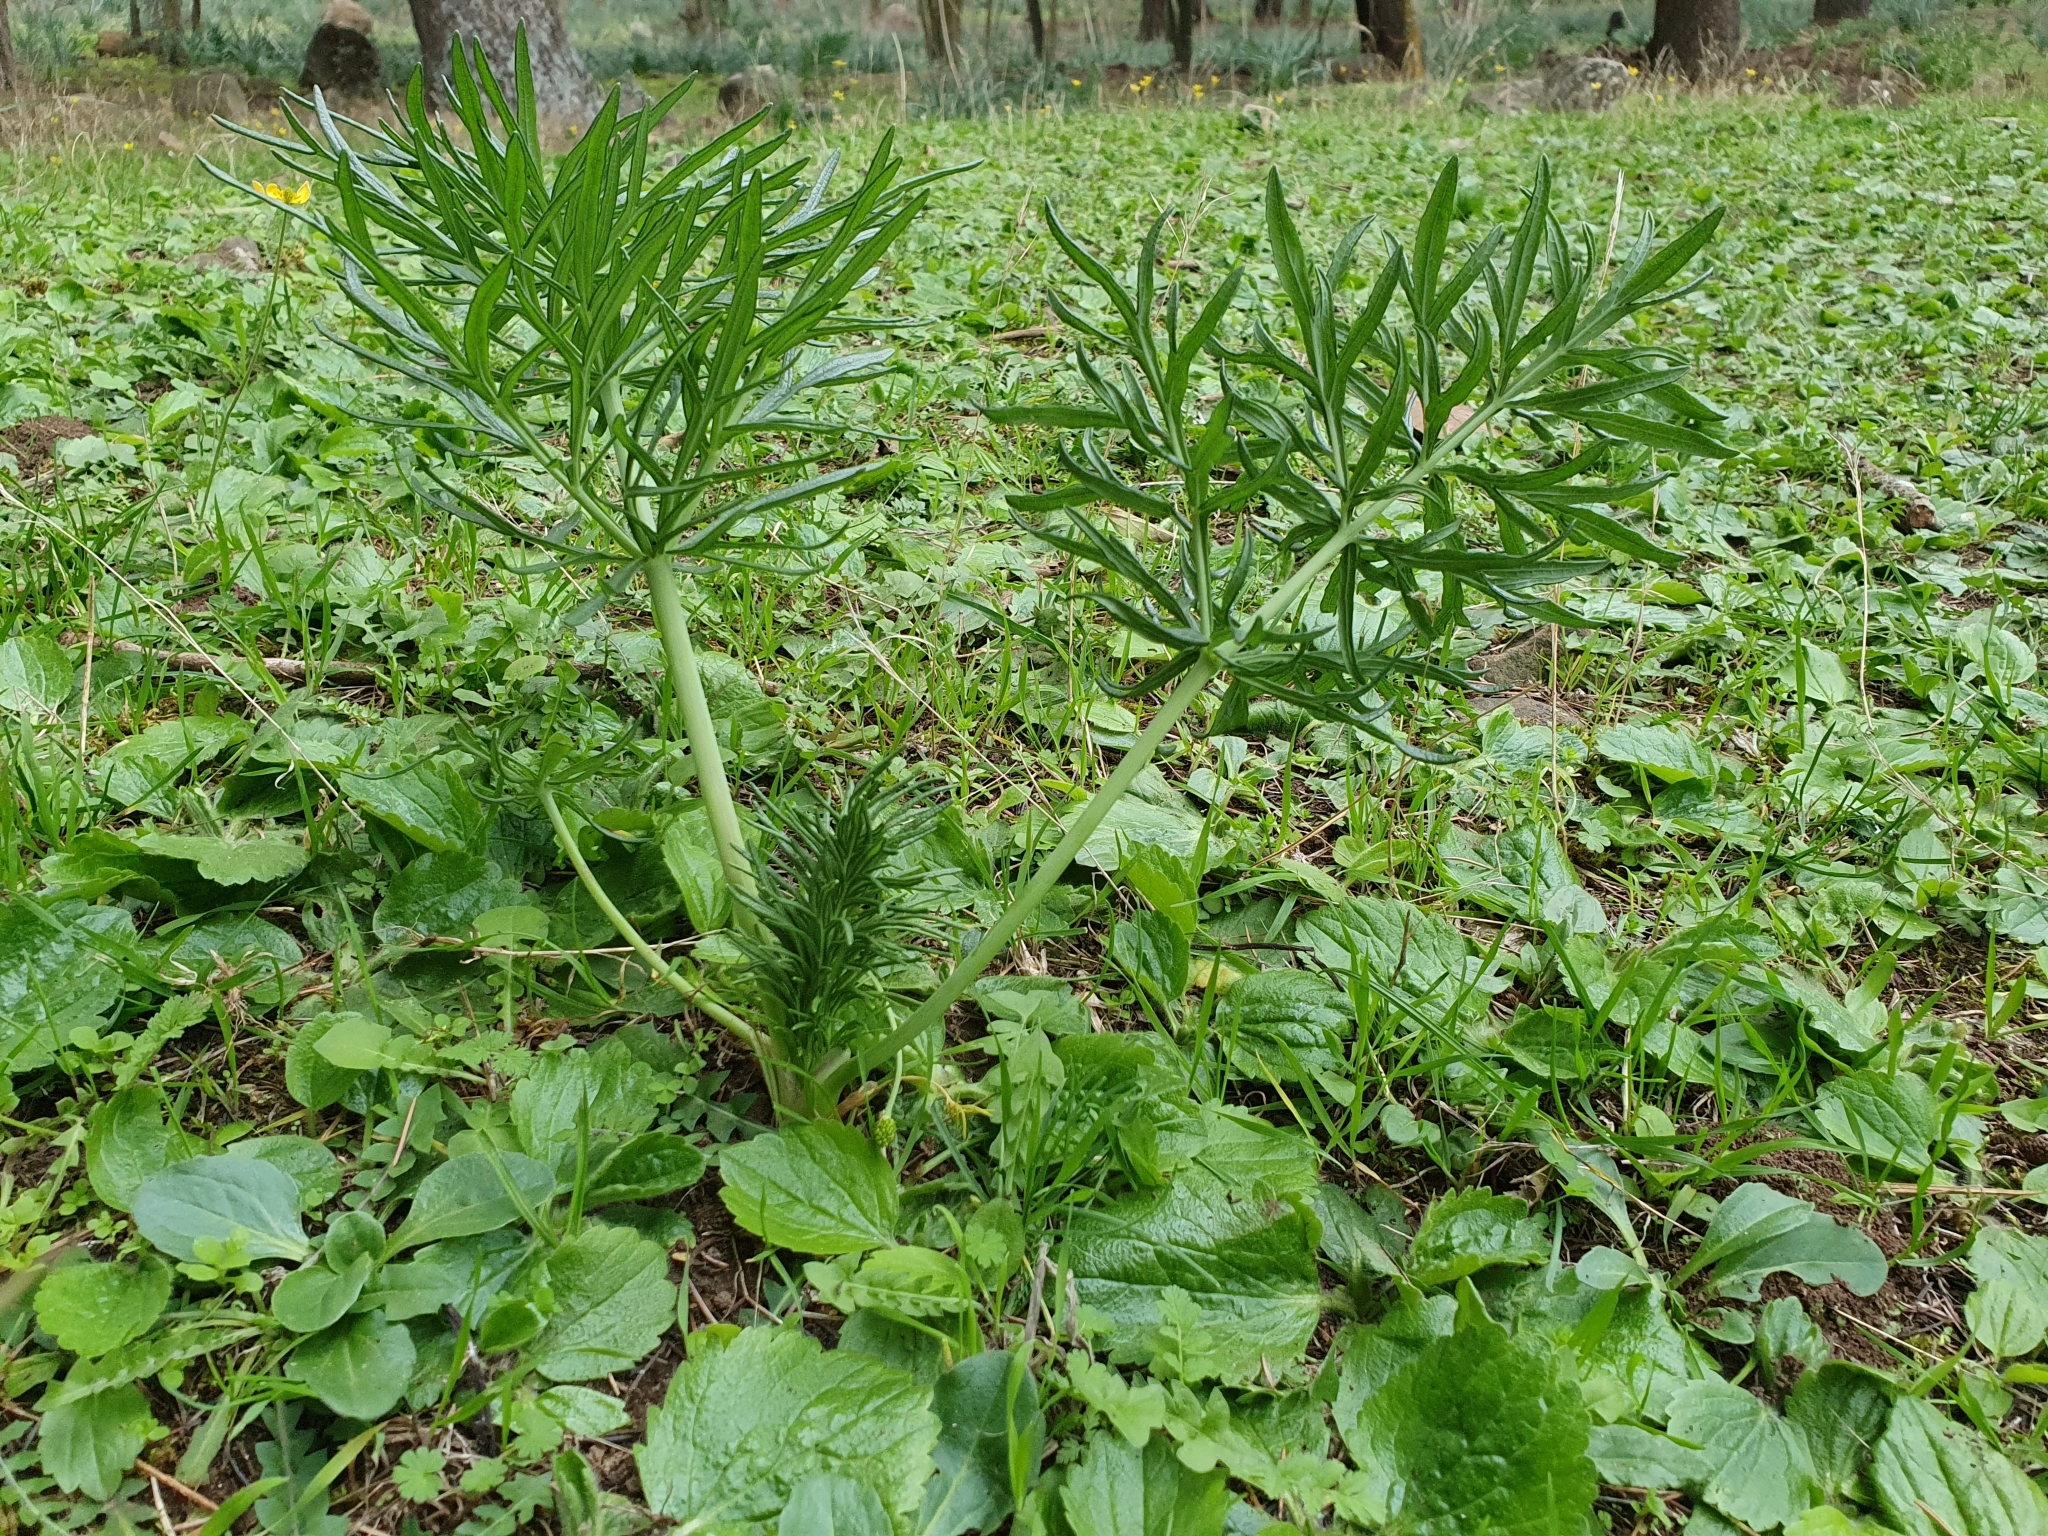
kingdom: Plantae
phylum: Tracheophyta
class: Magnoliopsida
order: Apiales
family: Apiaceae
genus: Thapsia
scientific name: Thapsia garganica
